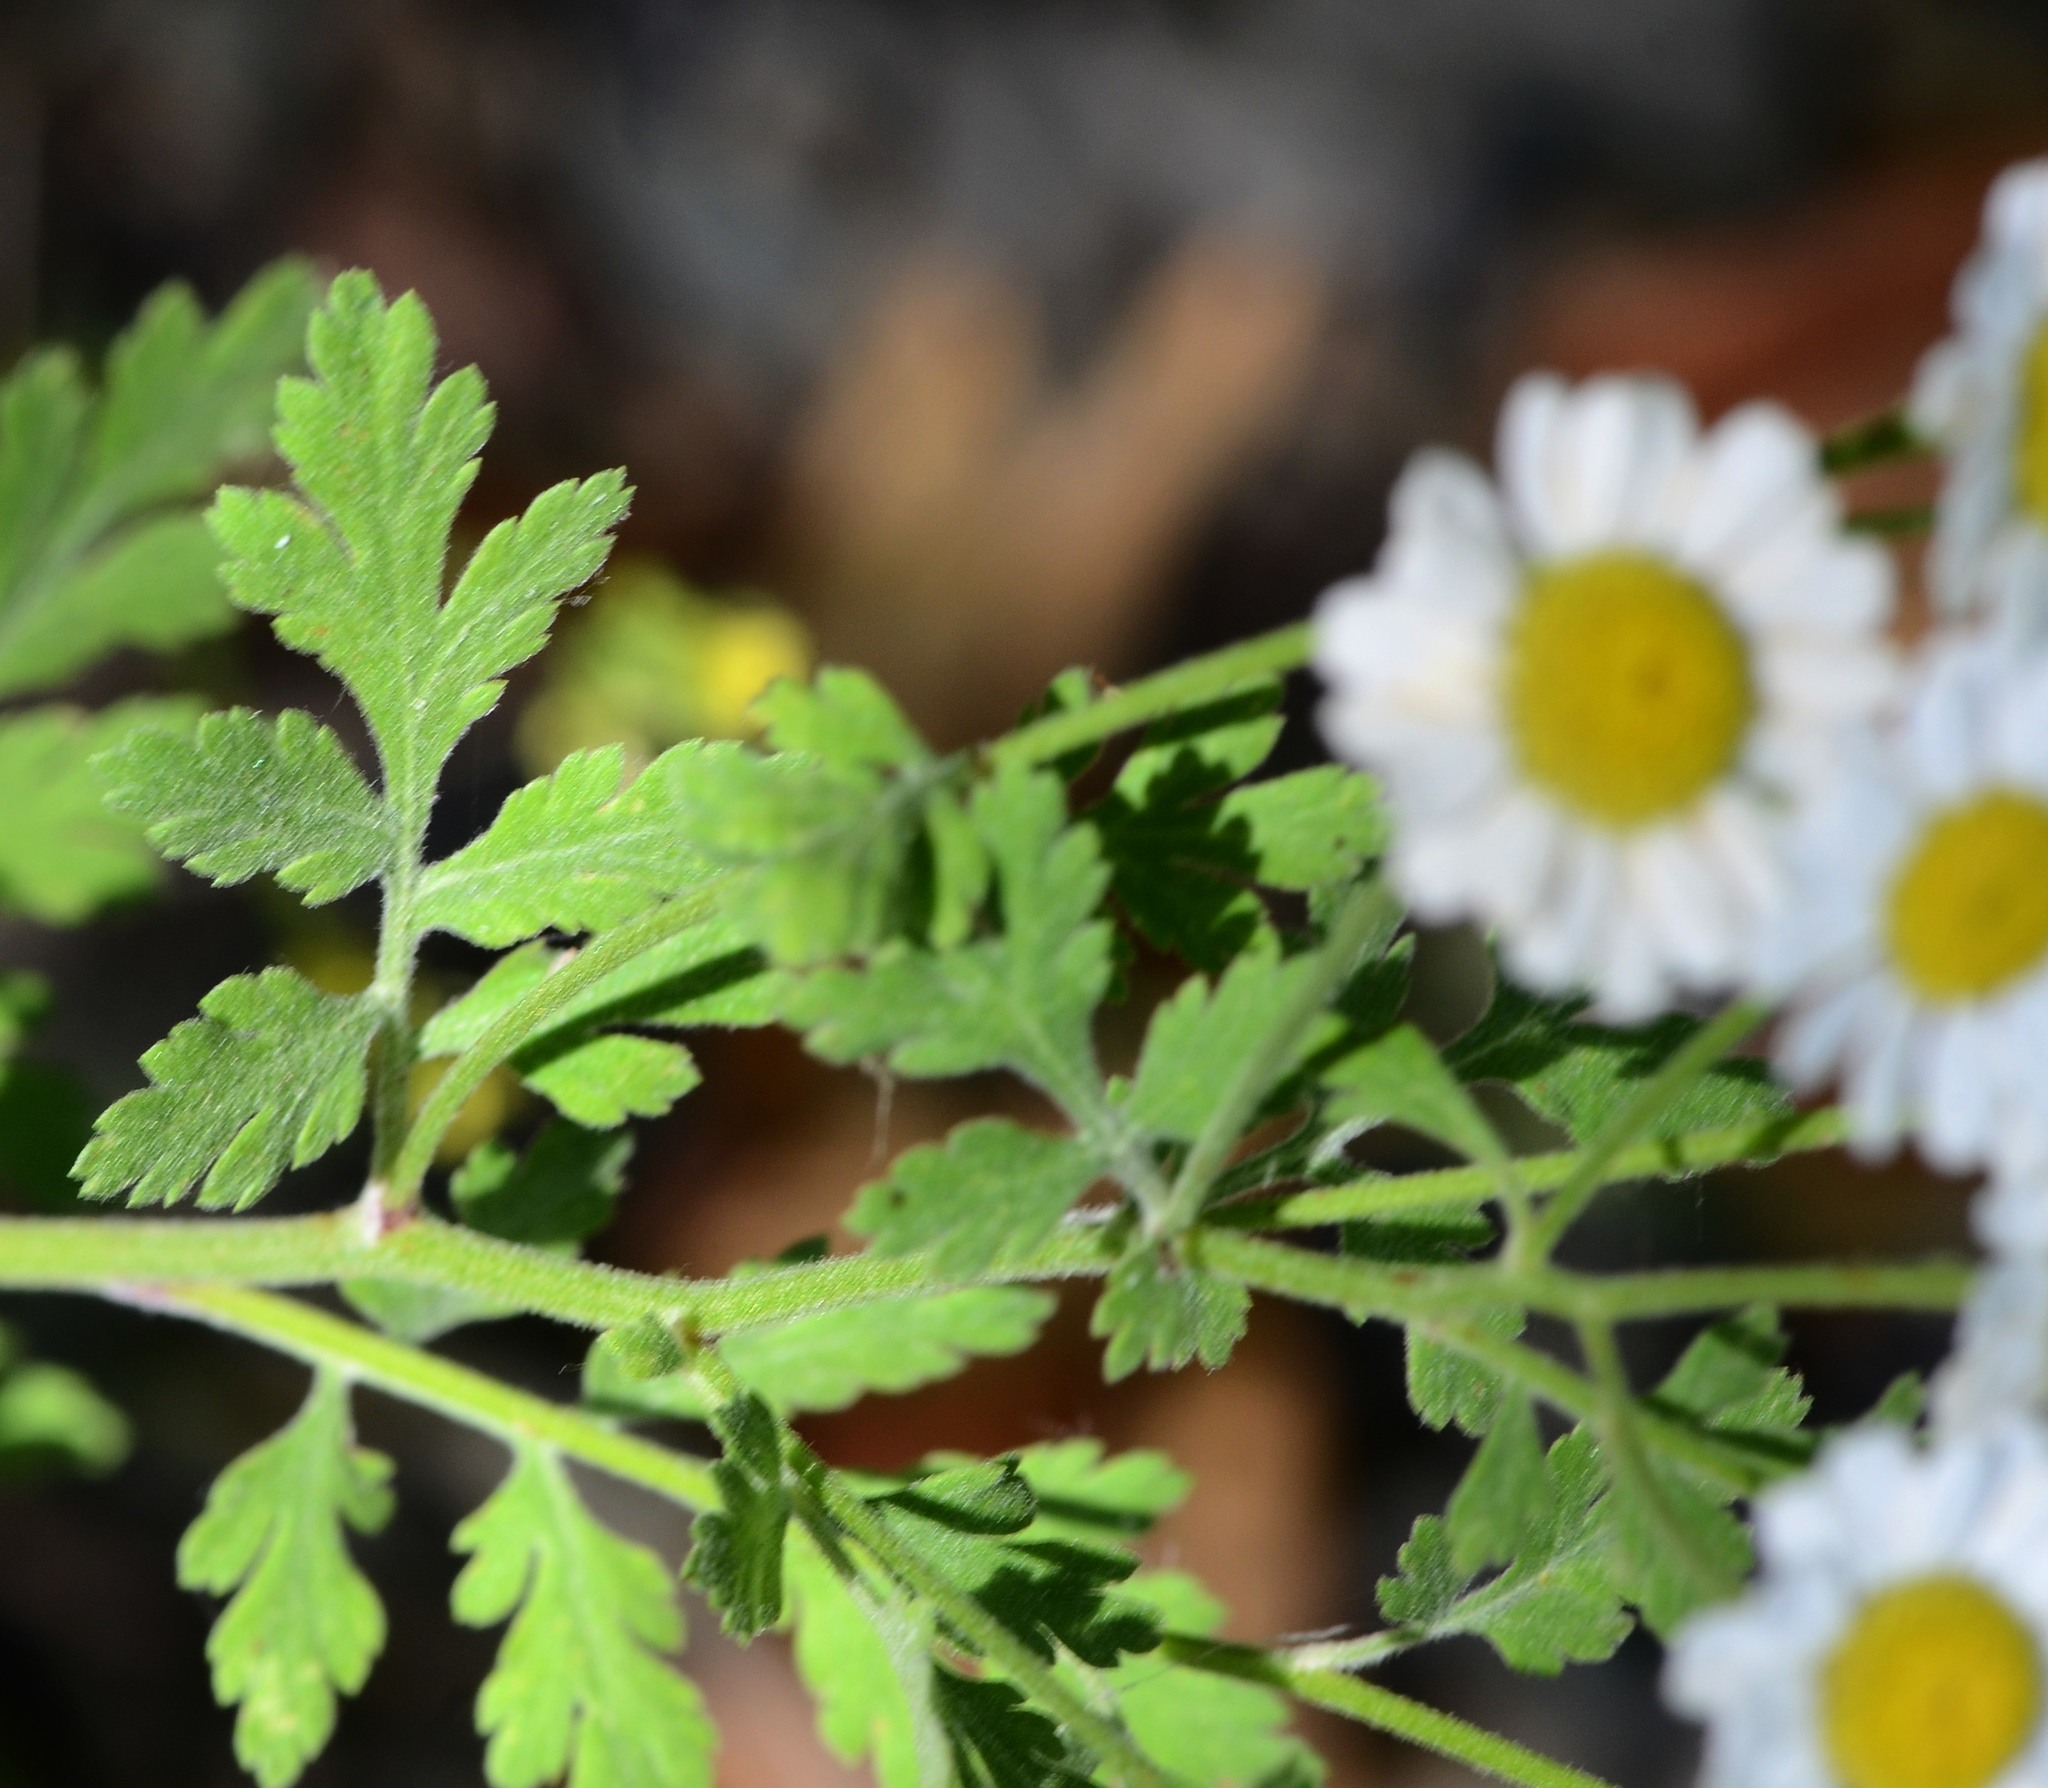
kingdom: Plantae
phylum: Tracheophyta
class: Magnoliopsida
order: Asterales
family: Asteraceae
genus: Tanacetum
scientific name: Tanacetum parthenium
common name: Feverfew
